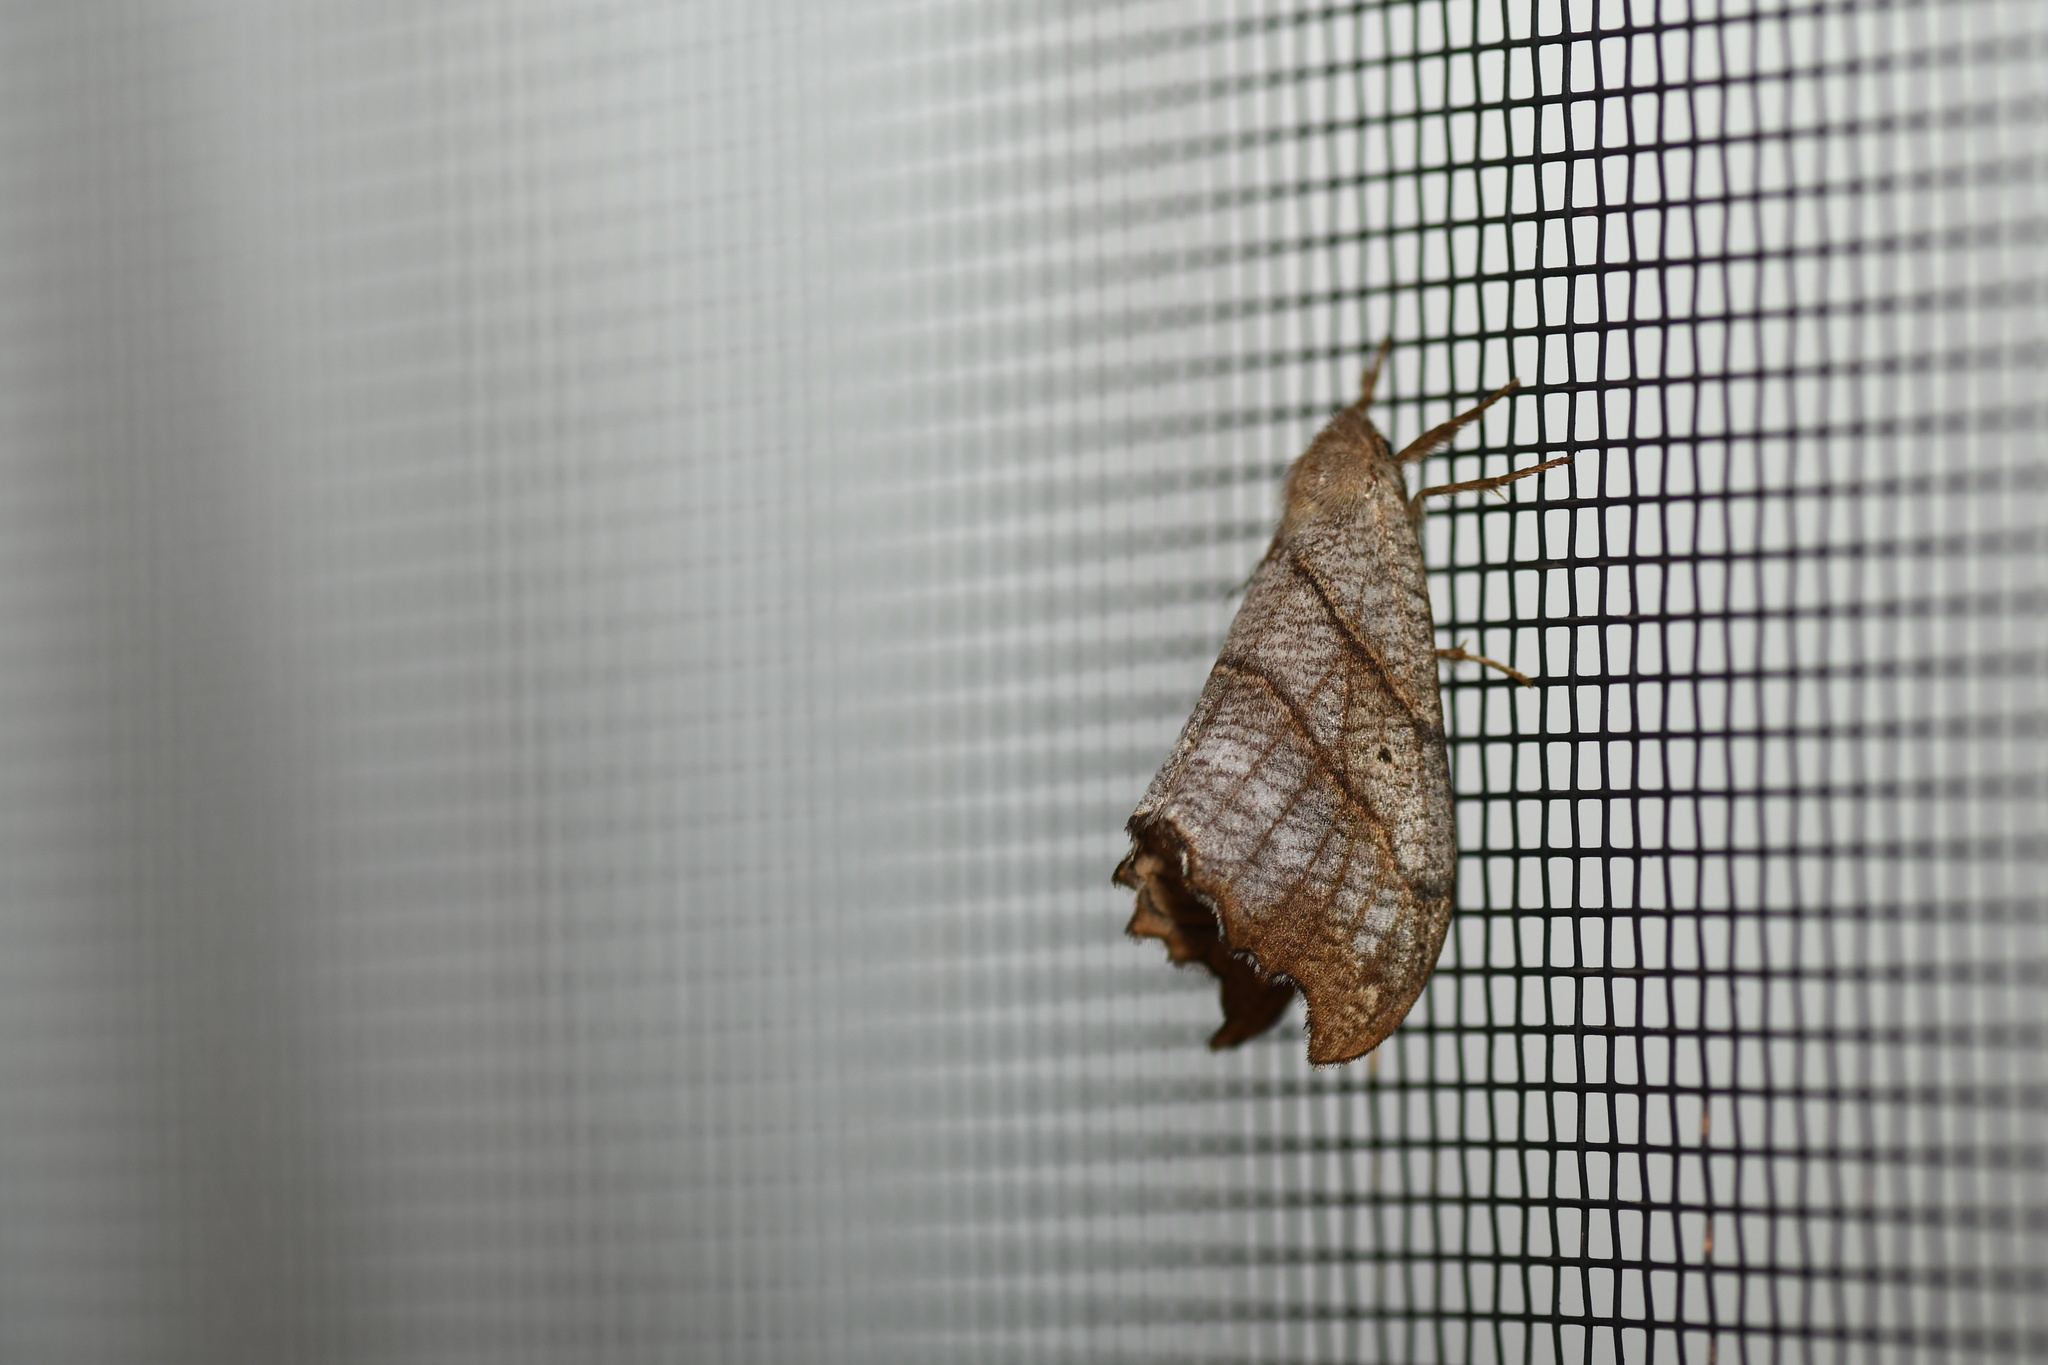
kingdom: Animalia
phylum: Arthropoda
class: Insecta
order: Lepidoptera
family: Drepanidae
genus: Falcaria
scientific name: Falcaria bilineata
